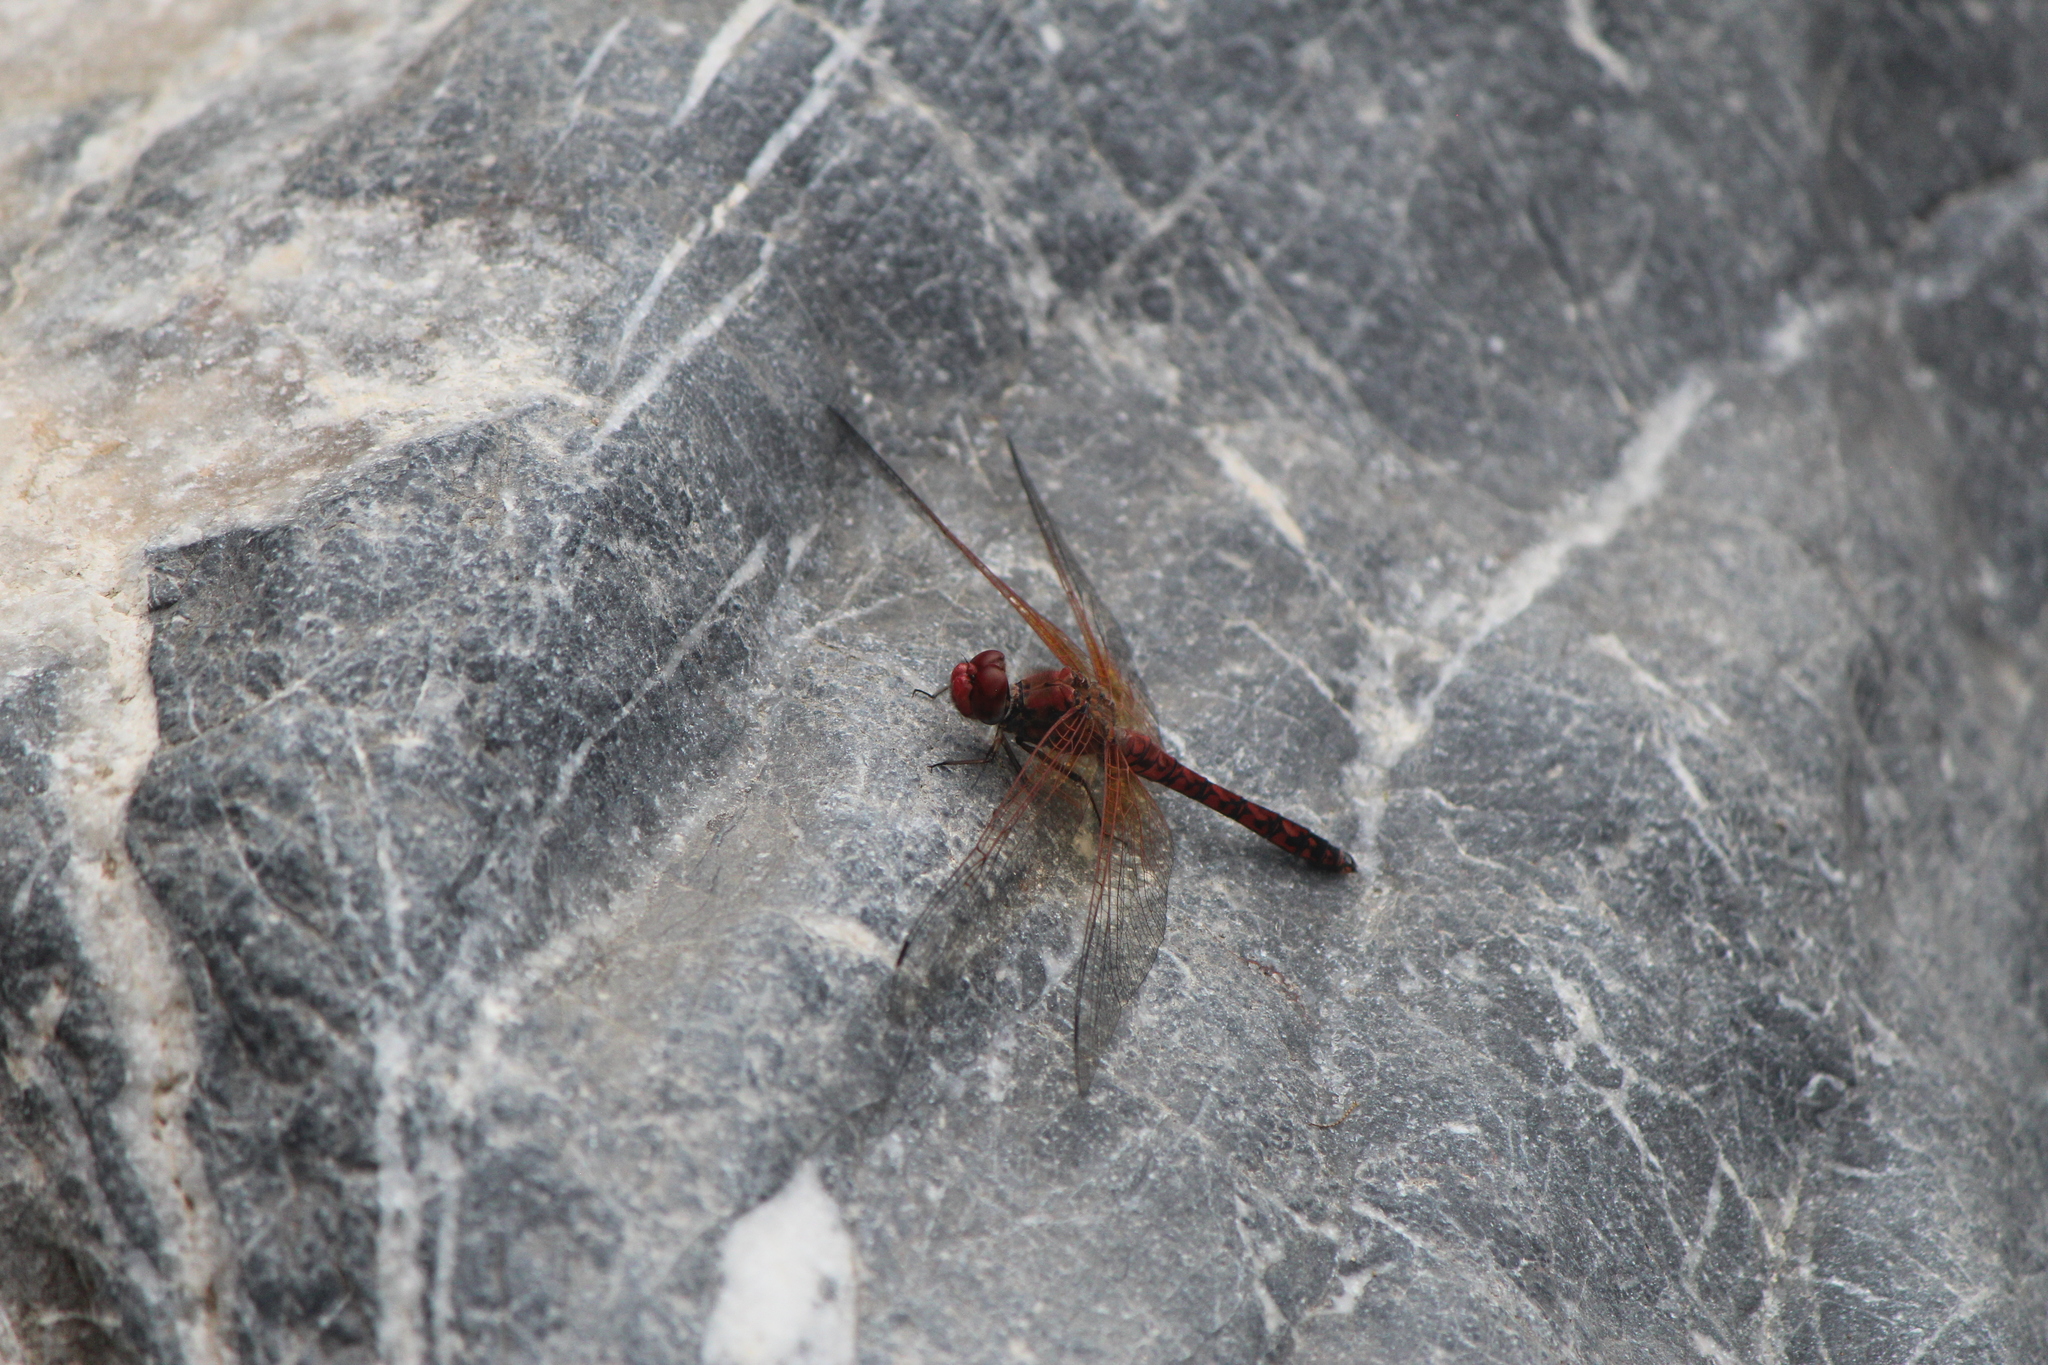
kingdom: Animalia
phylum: Arthropoda
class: Insecta
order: Odonata
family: Libellulidae
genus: Paltothemis
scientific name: Paltothemis lineatipes
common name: Red rock skimmer
